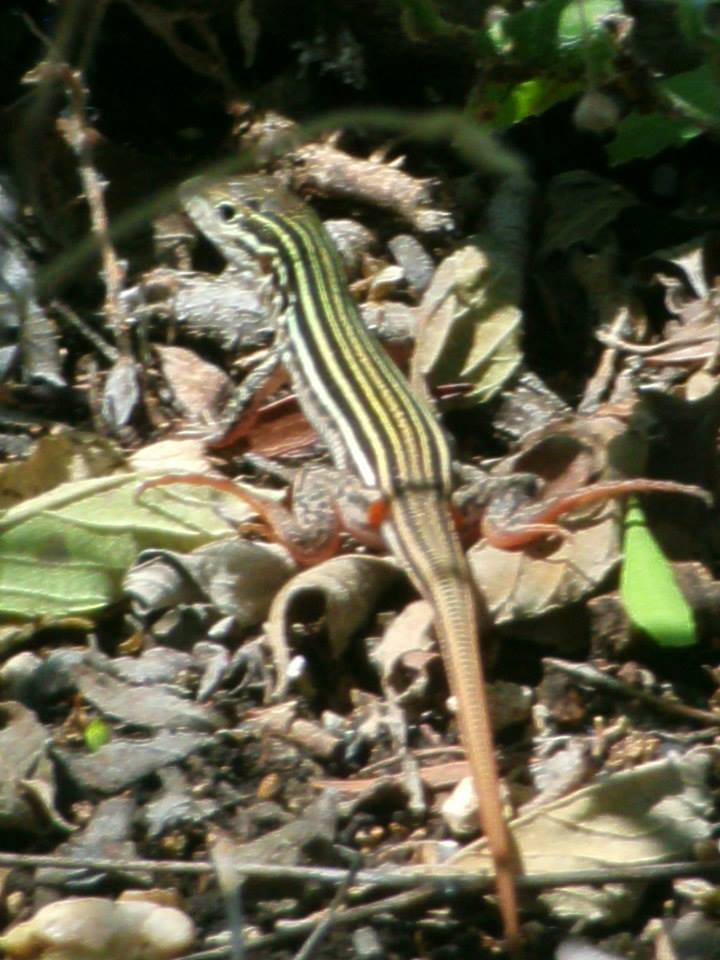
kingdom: Animalia
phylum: Chordata
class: Squamata
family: Teiidae
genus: Aspidoscelis
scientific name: Aspidoscelis gularis
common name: Eastern spotted whiptail
